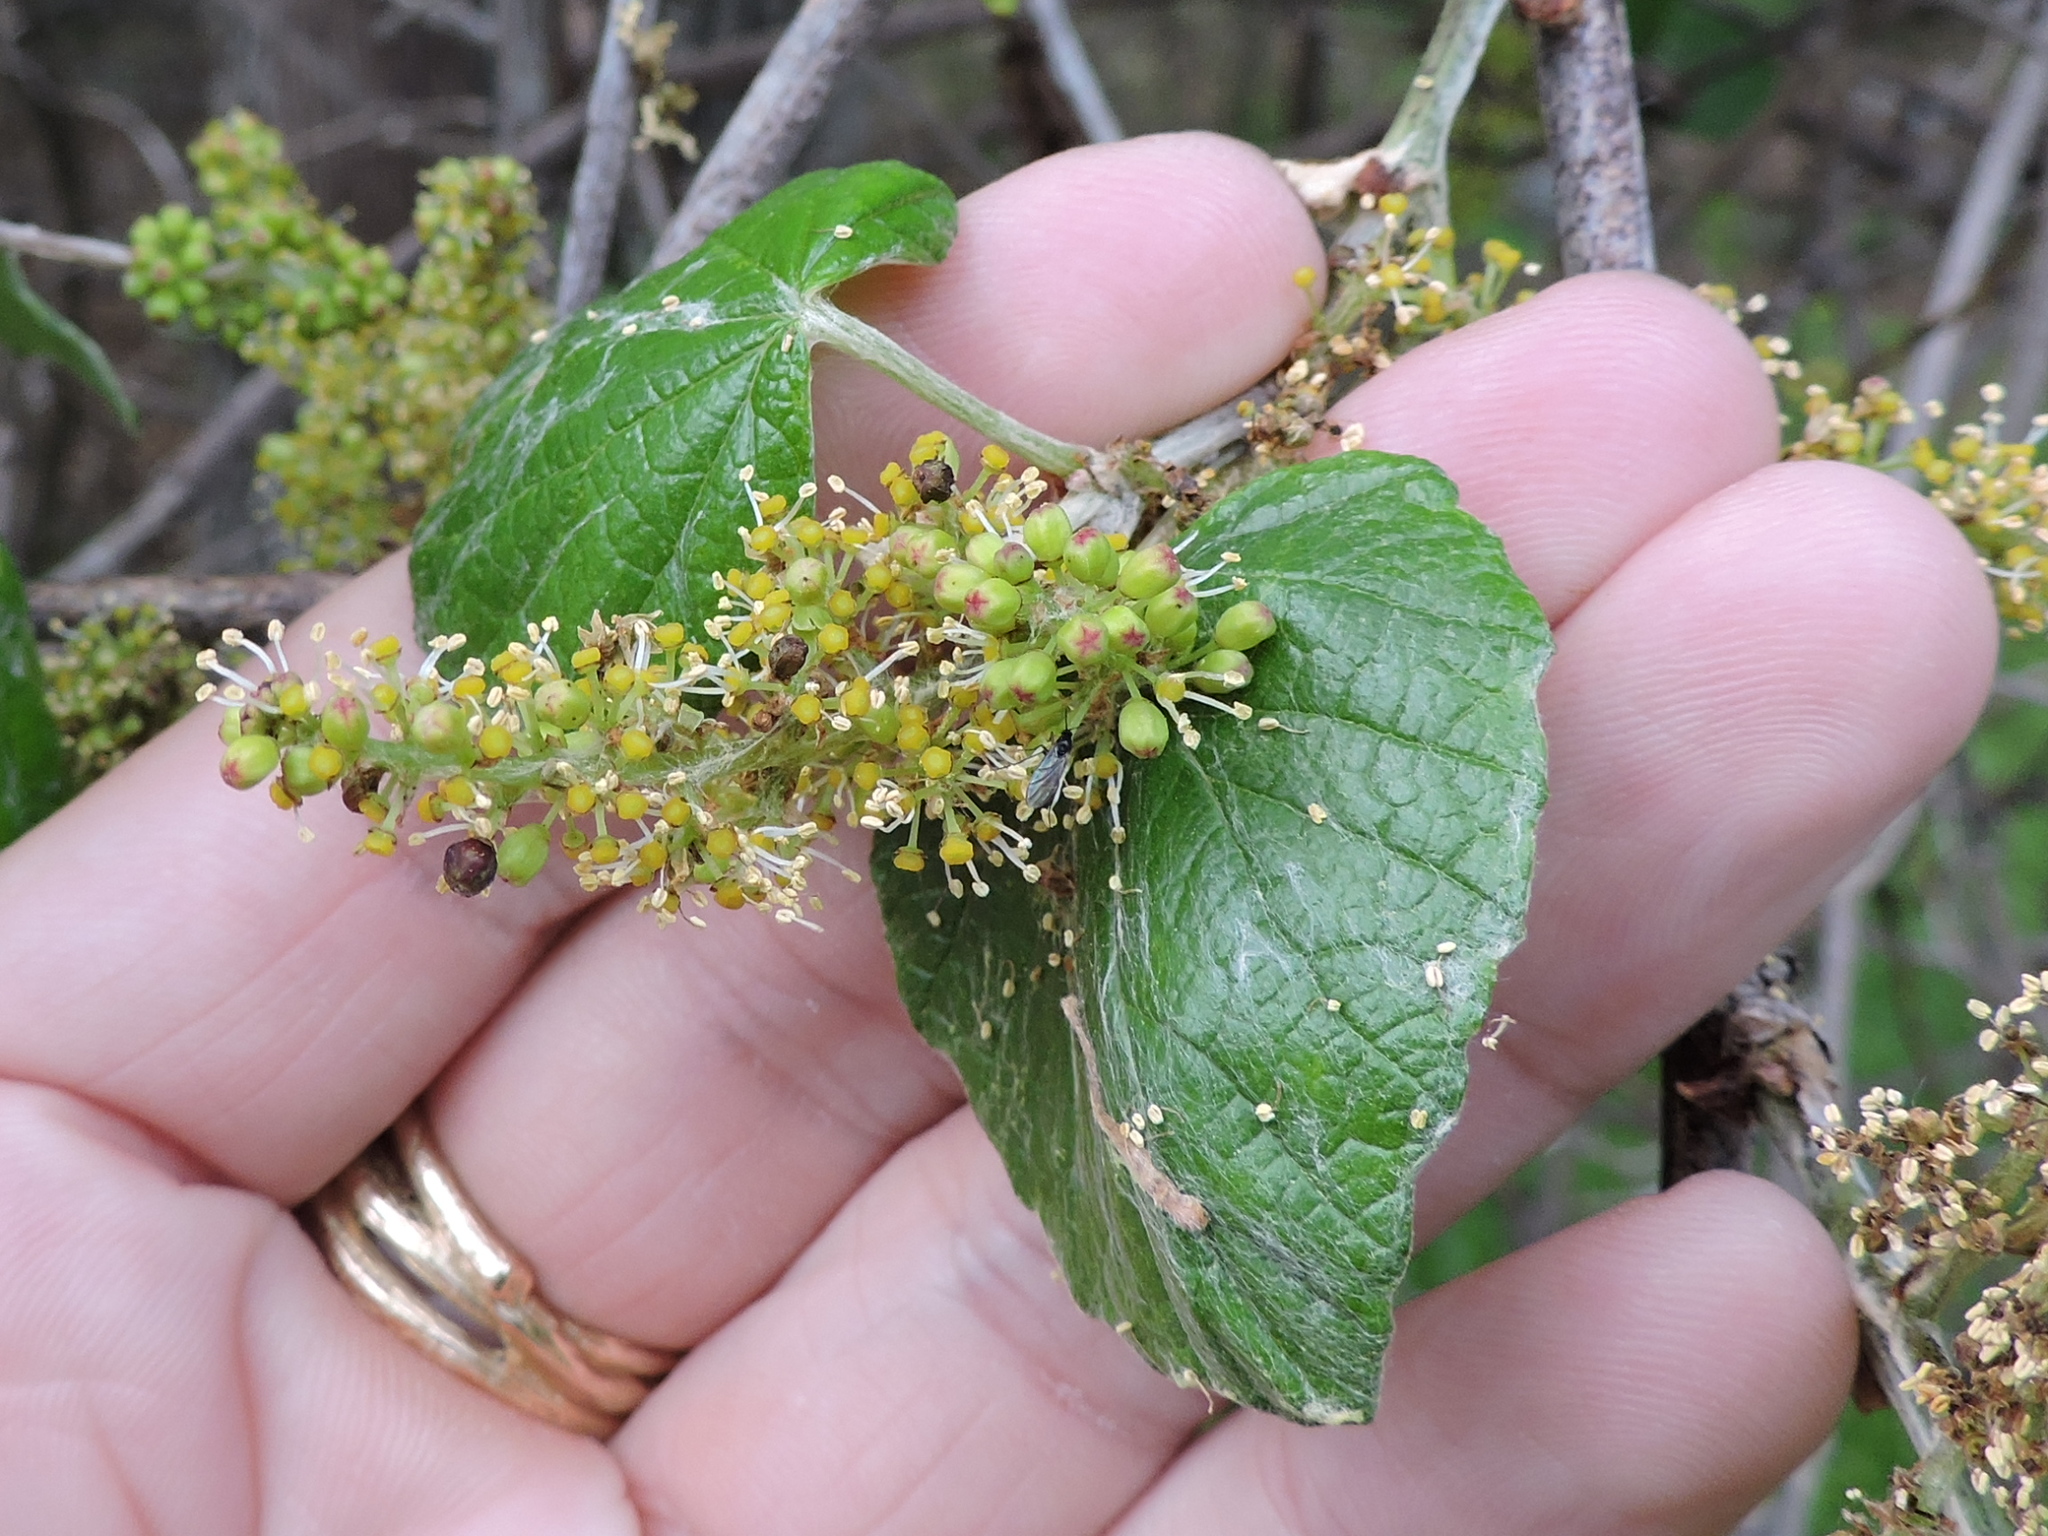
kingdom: Plantae
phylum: Tracheophyta
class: Magnoliopsida
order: Vitales
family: Vitaceae
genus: Vitis
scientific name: Vitis mustangensis
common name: Mustang grape
